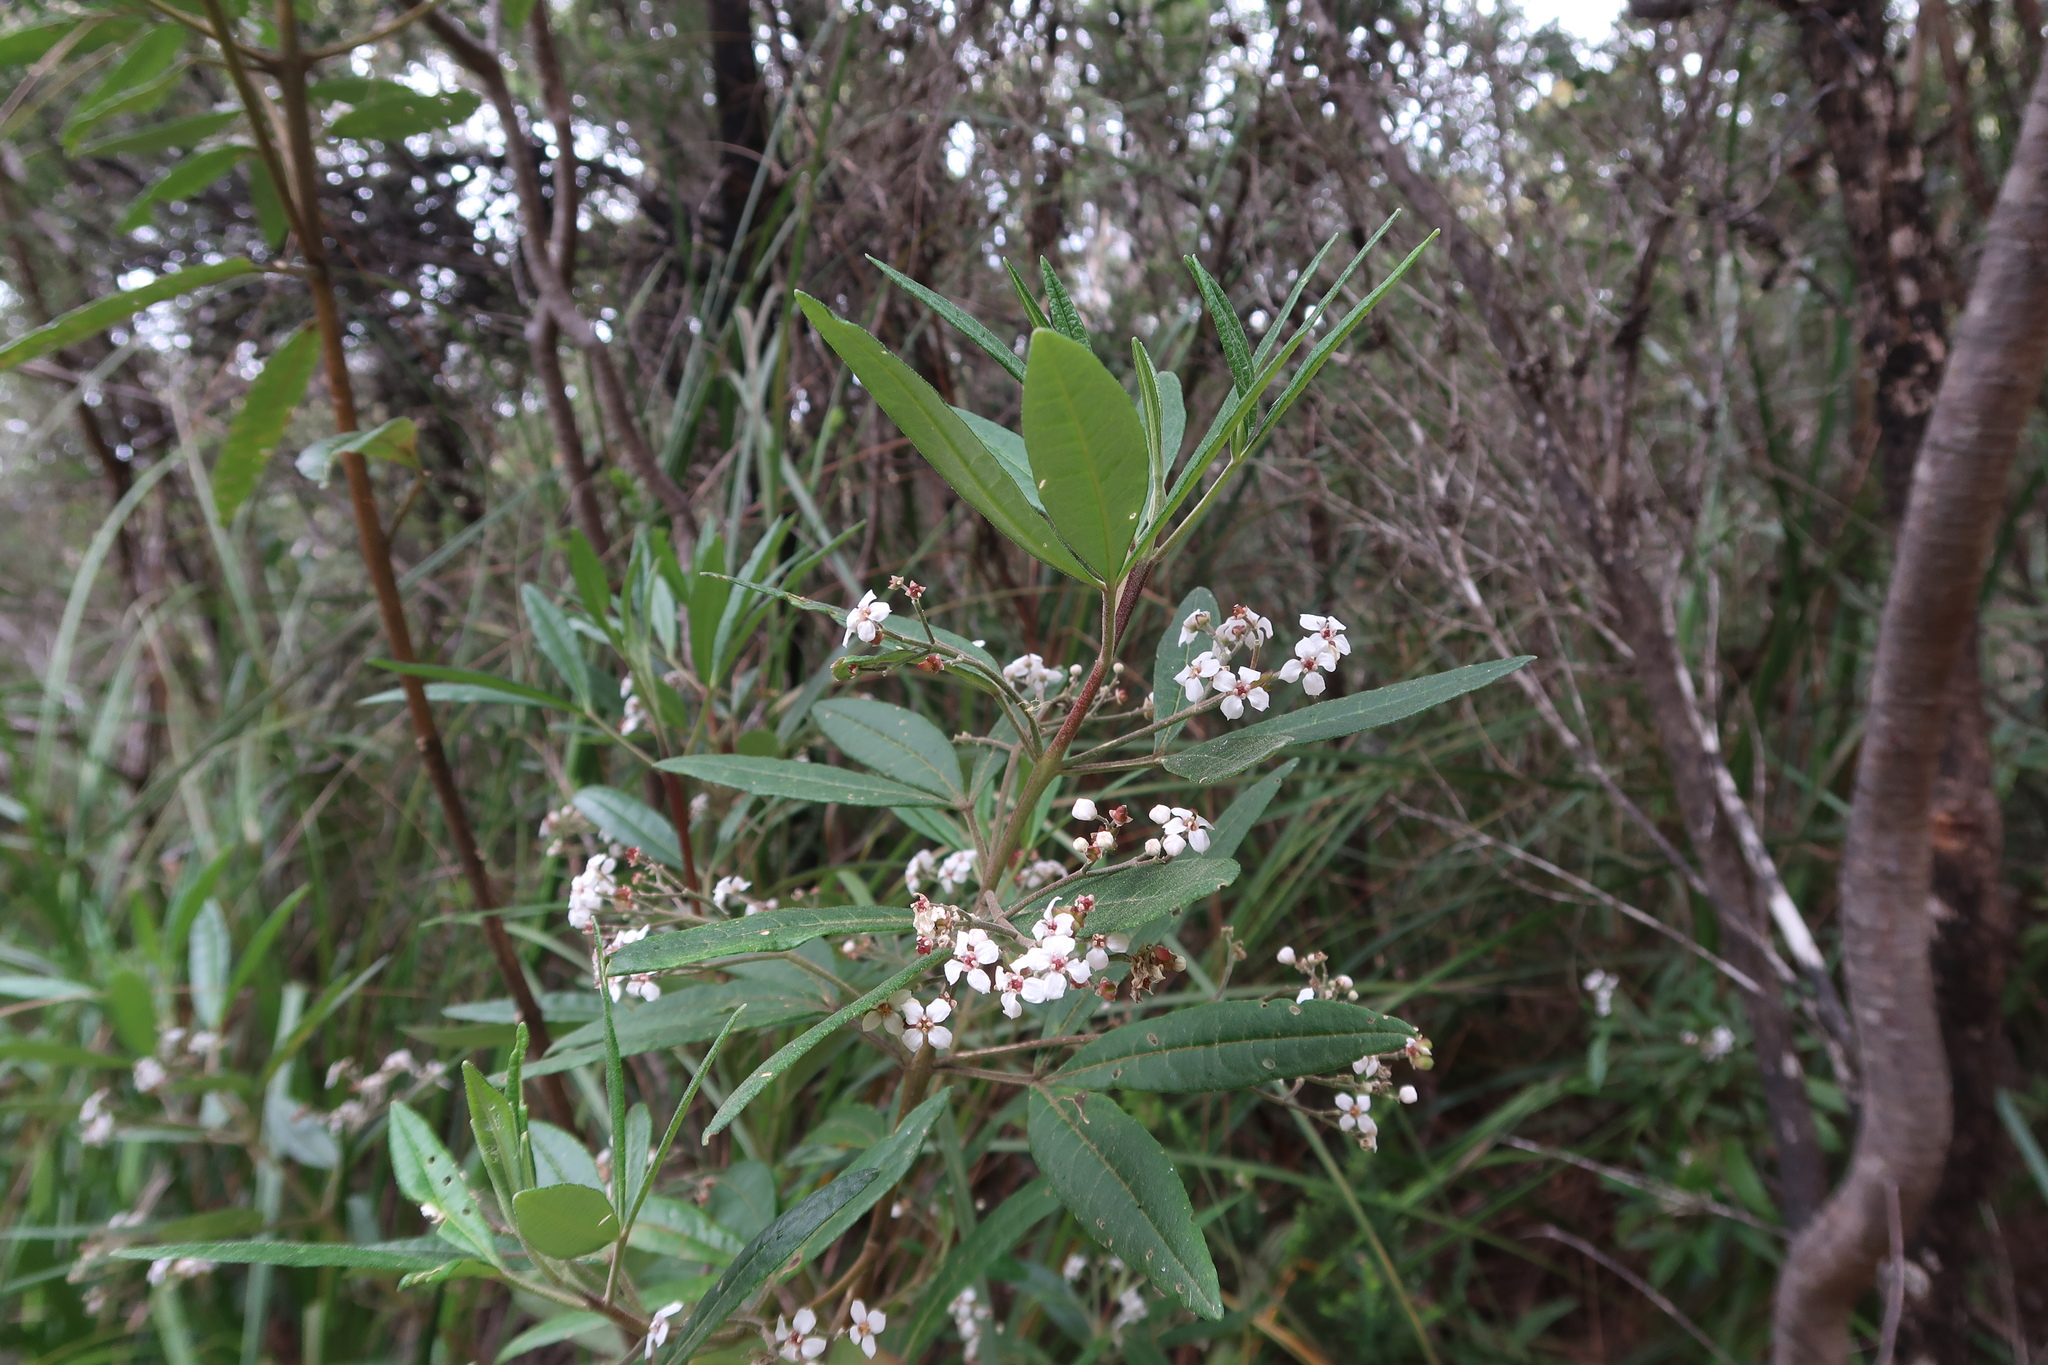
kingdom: Plantae
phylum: Tracheophyta
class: Magnoliopsida
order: Sapindales
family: Rutaceae
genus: Zieria
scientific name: Zieria arborescens
